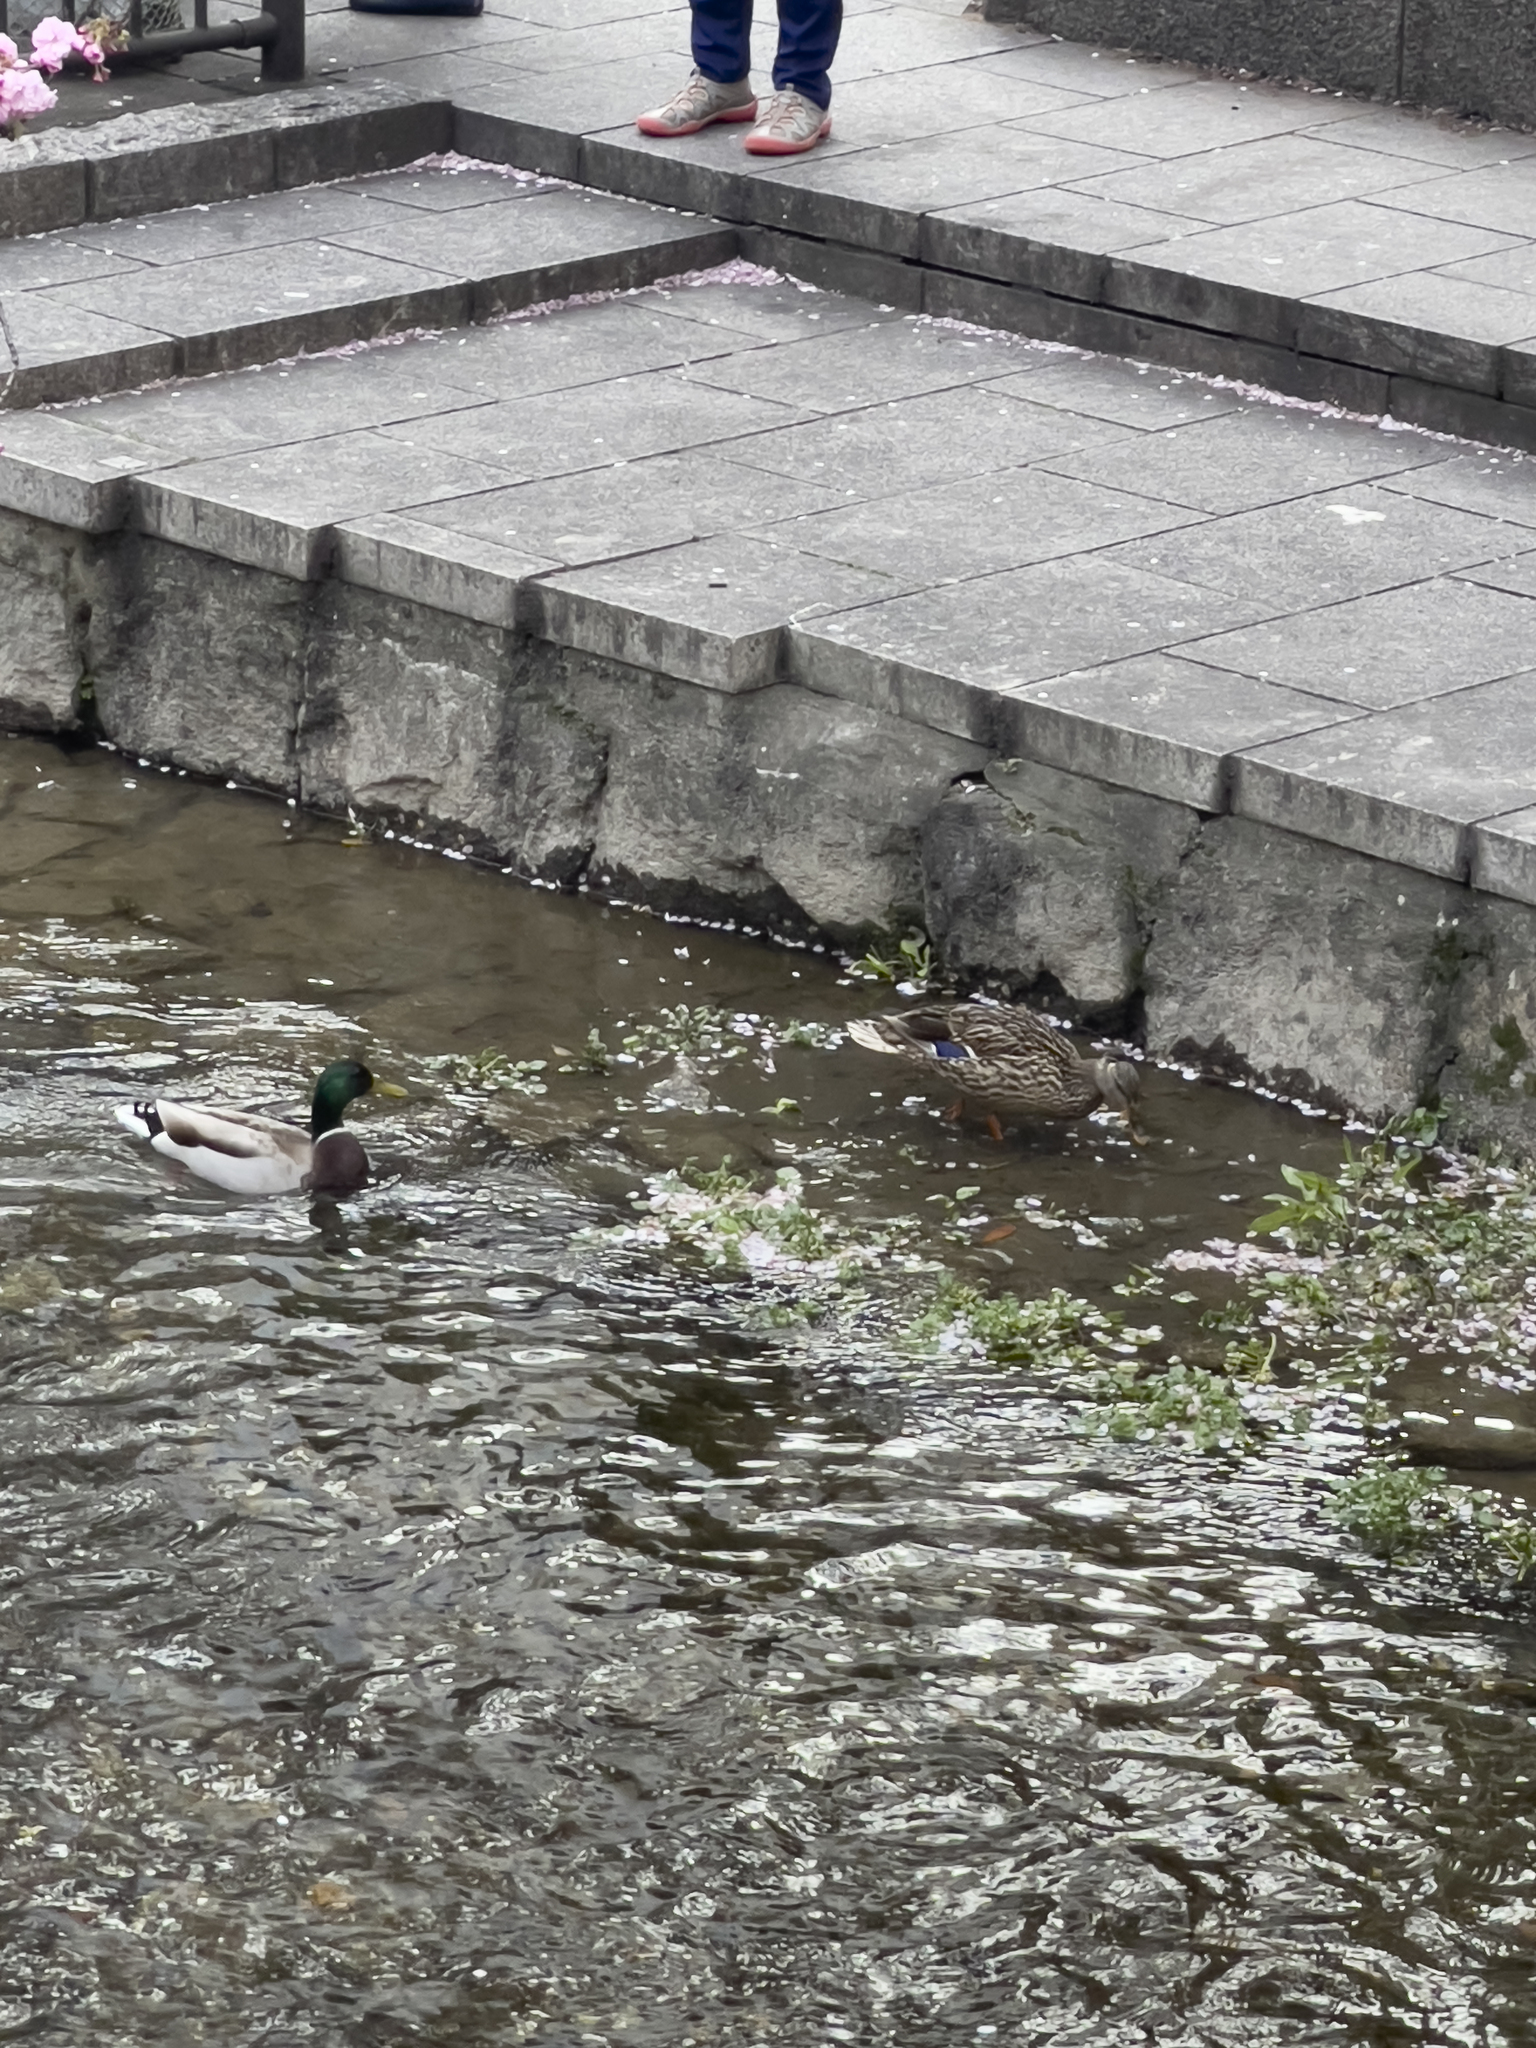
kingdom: Animalia
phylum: Chordata
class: Aves
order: Anseriformes
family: Anatidae
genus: Anas
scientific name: Anas platyrhynchos
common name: Mallard
